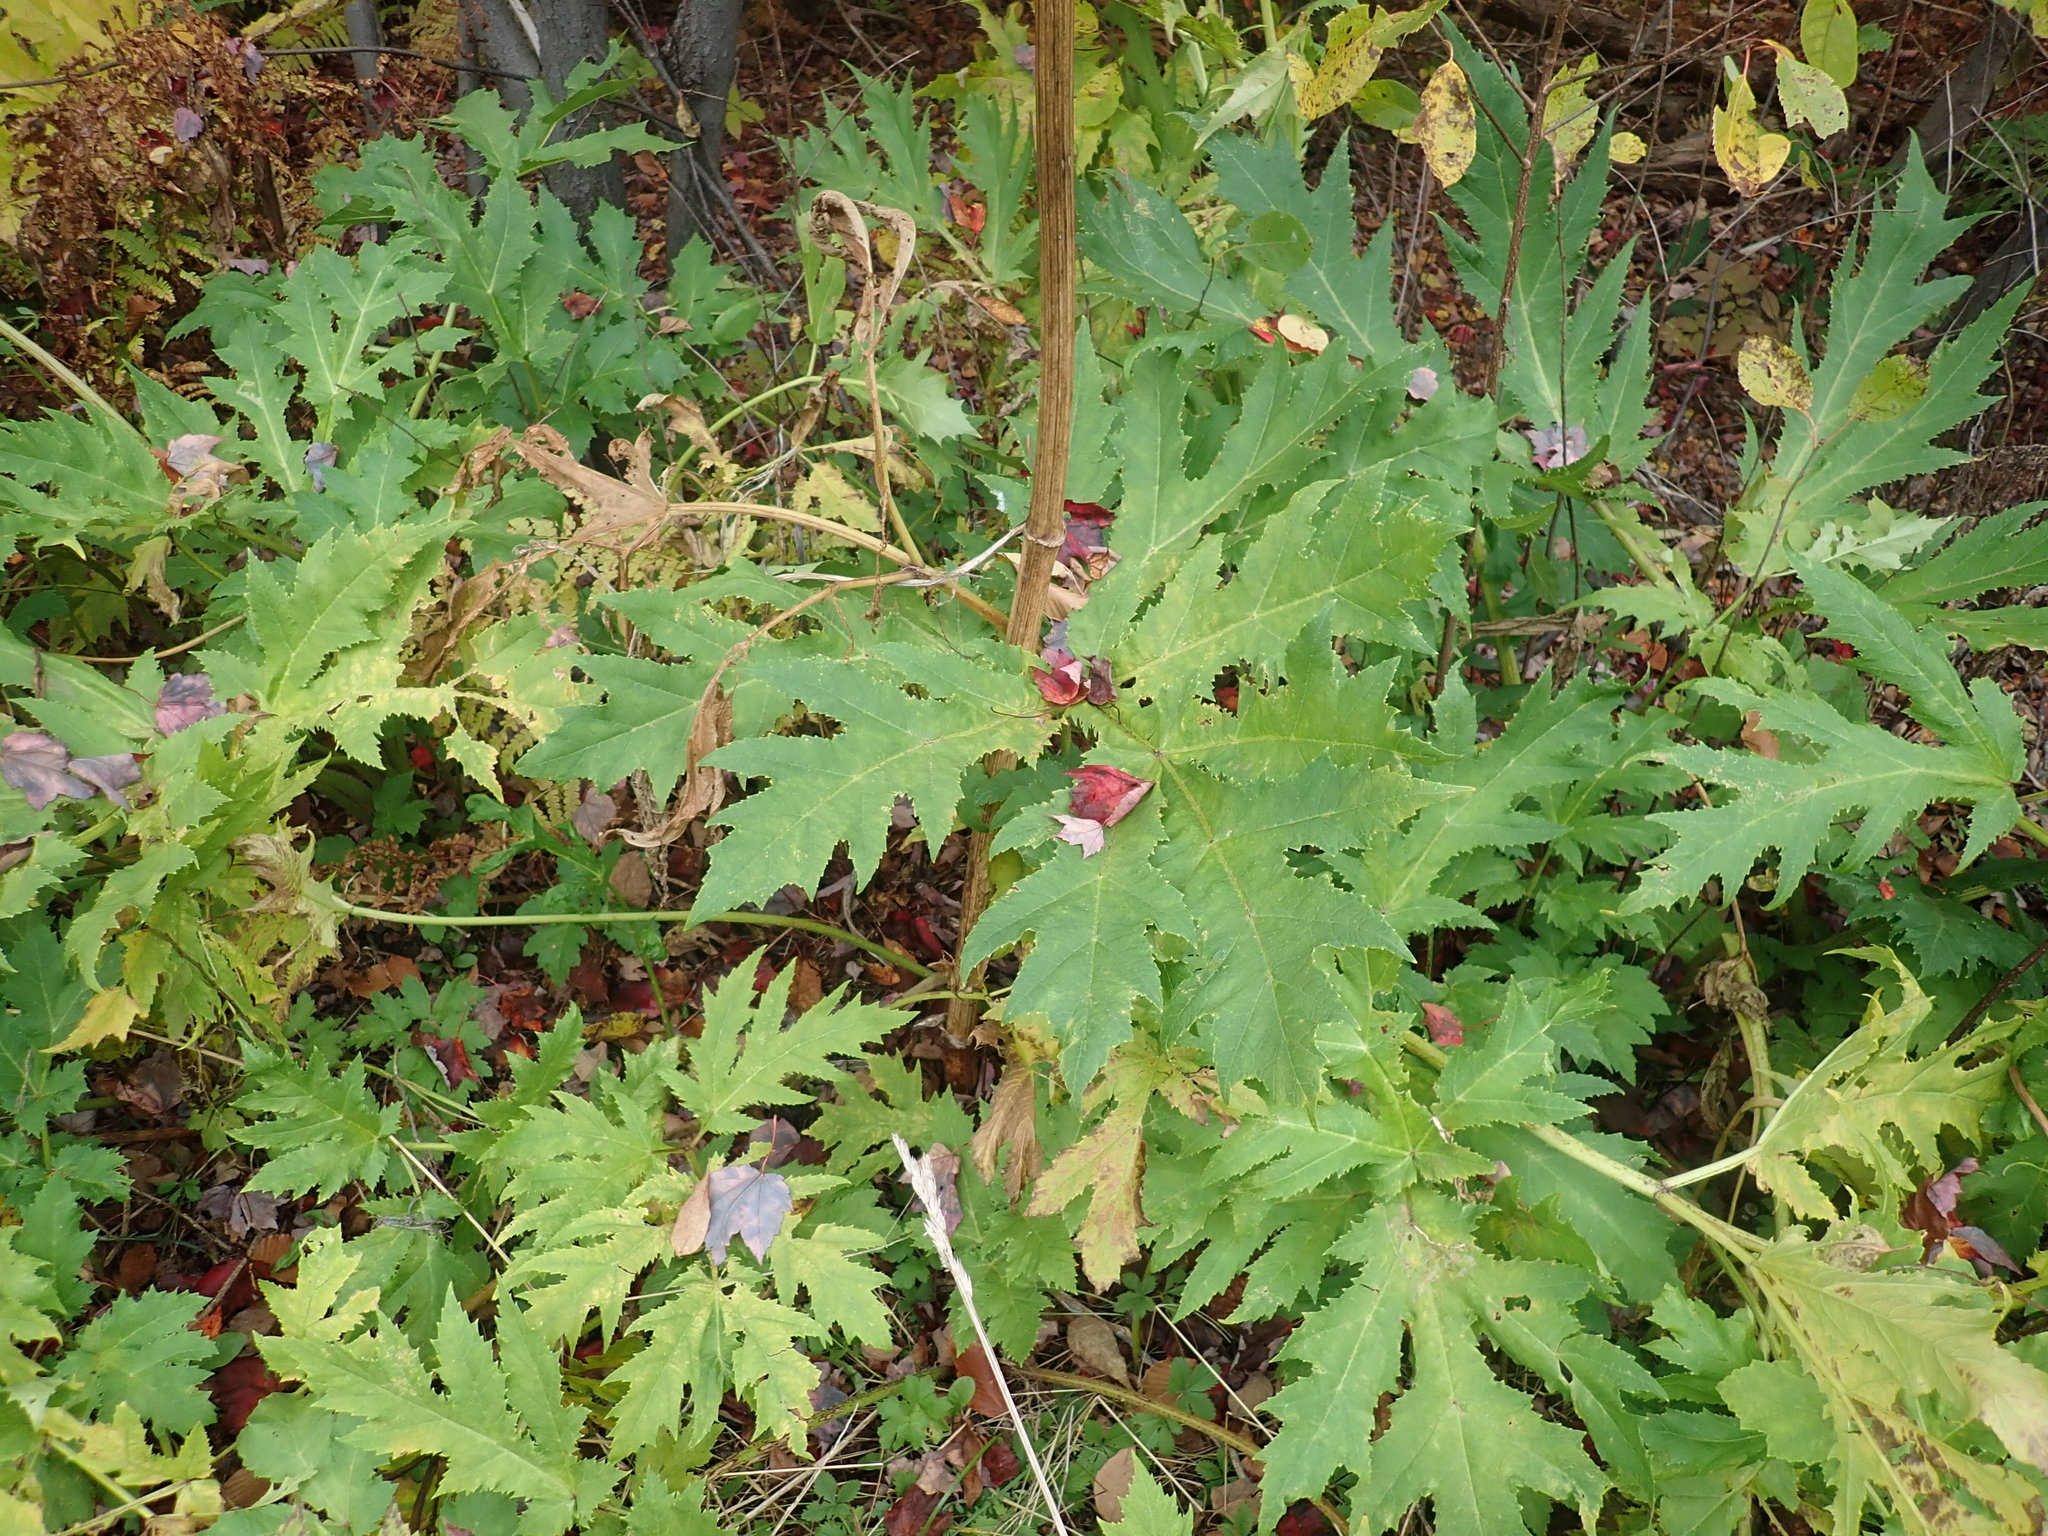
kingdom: Plantae
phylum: Tracheophyta
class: Magnoliopsida
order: Apiales
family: Apiaceae
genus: Heracleum
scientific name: Heracleum mantegazzianum
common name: Giant hogweed
